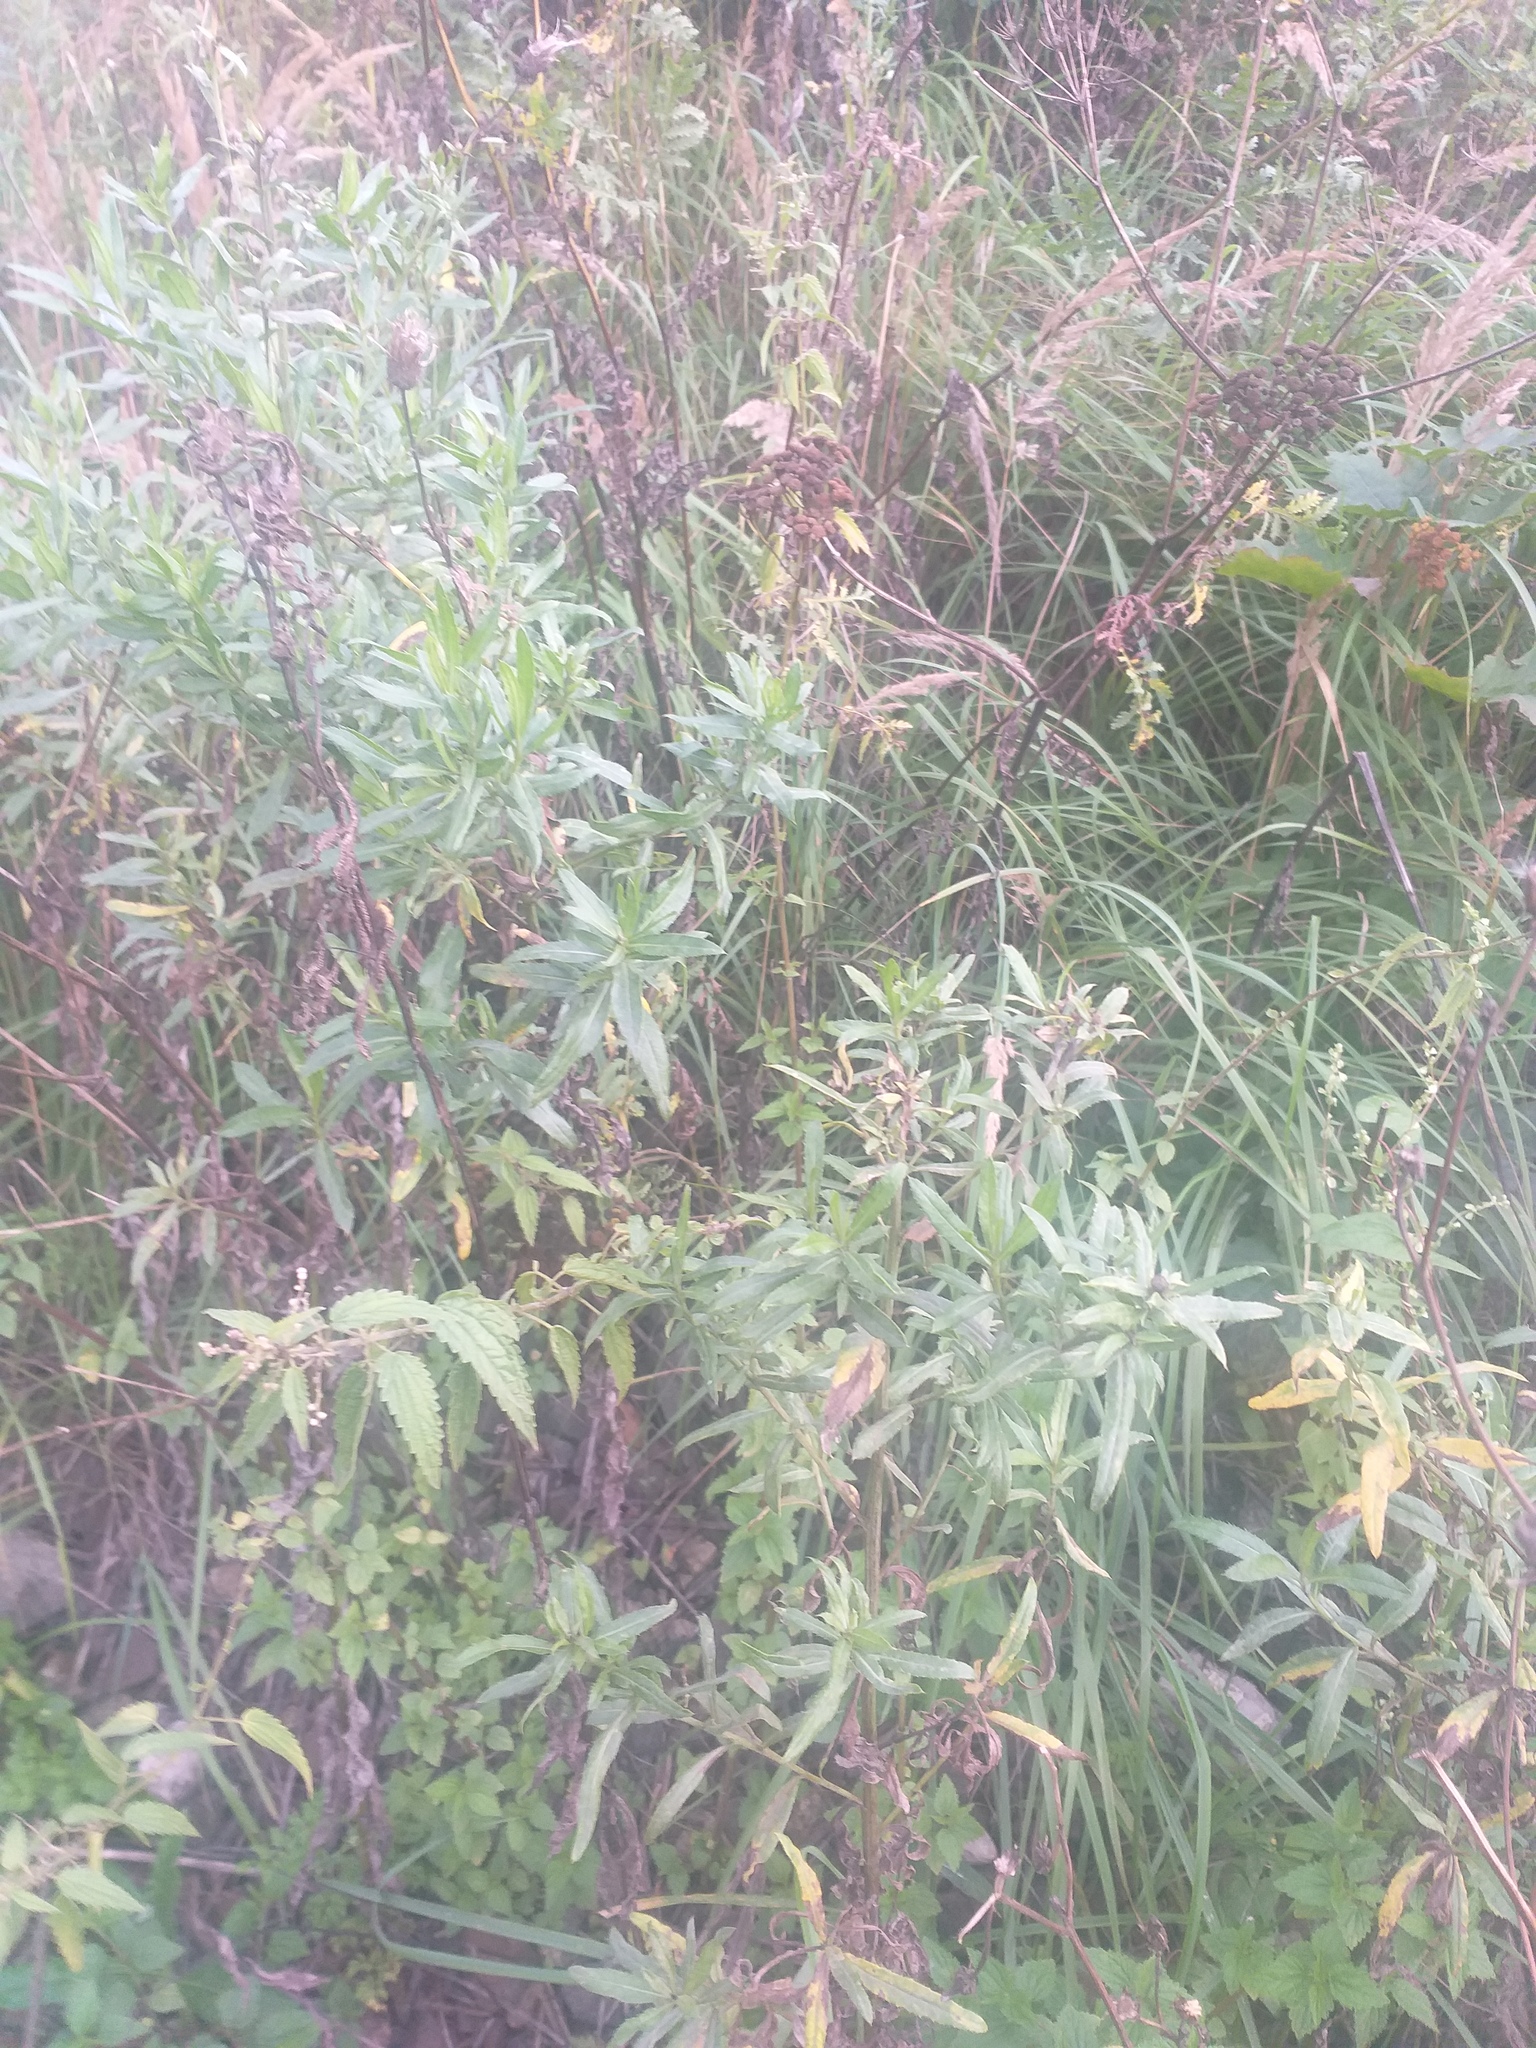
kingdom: Plantae
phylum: Tracheophyta
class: Magnoliopsida
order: Asterales
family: Asteraceae
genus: Cirsium
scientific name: Cirsium arvense
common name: Creeping thistle
